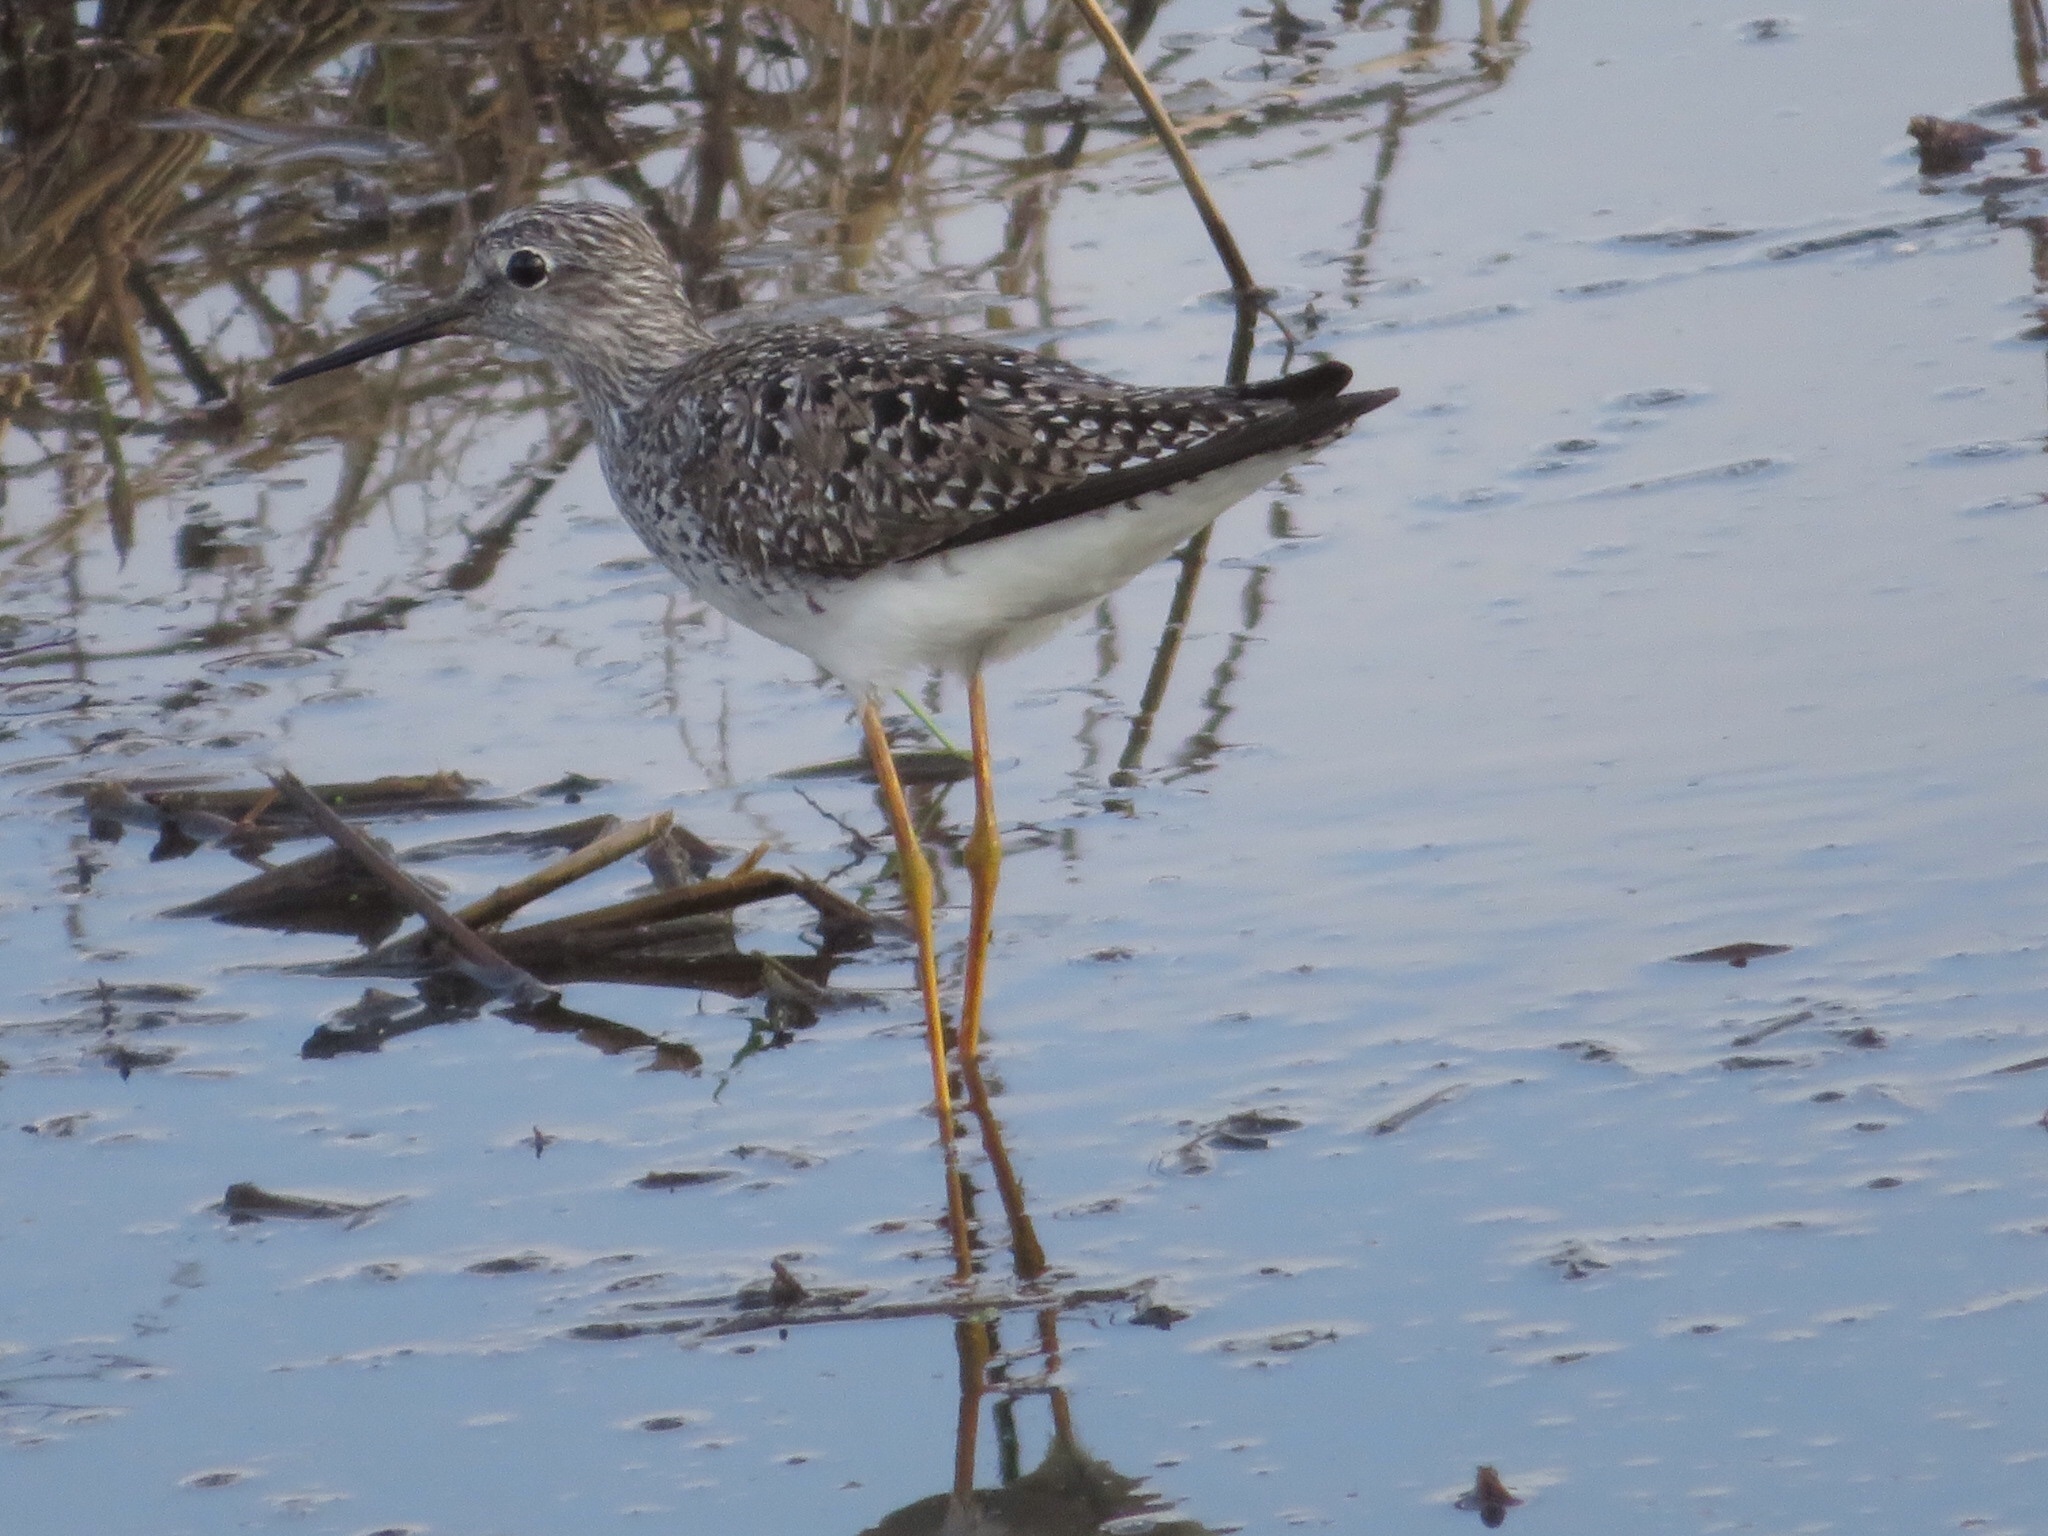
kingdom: Animalia
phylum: Chordata
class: Aves
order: Charadriiformes
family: Scolopacidae
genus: Tringa
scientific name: Tringa flavipes
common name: Lesser yellowlegs
